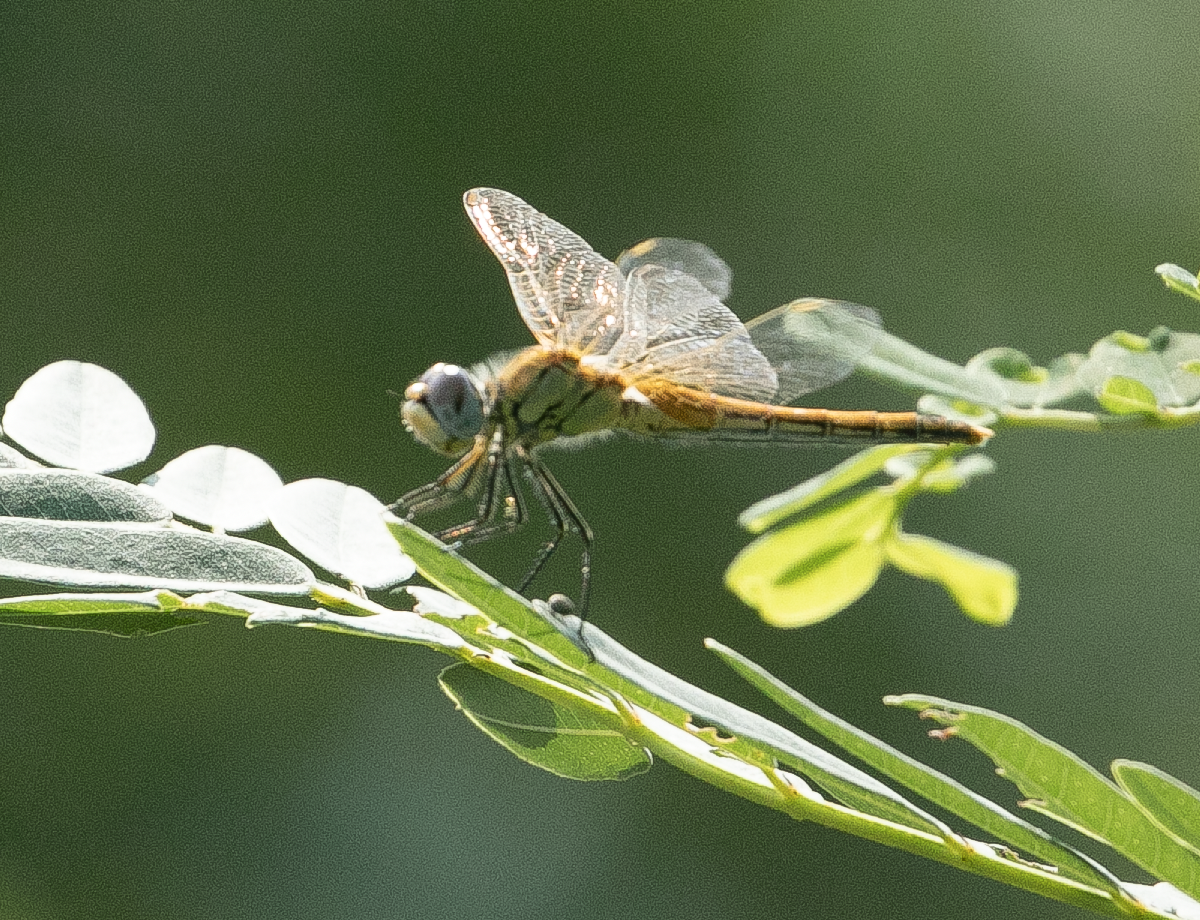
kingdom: Animalia
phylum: Arthropoda
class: Insecta
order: Odonata
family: Libellulidae
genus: Sympetrum
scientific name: Sympetrum fonscolombii
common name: Red-veined darter
